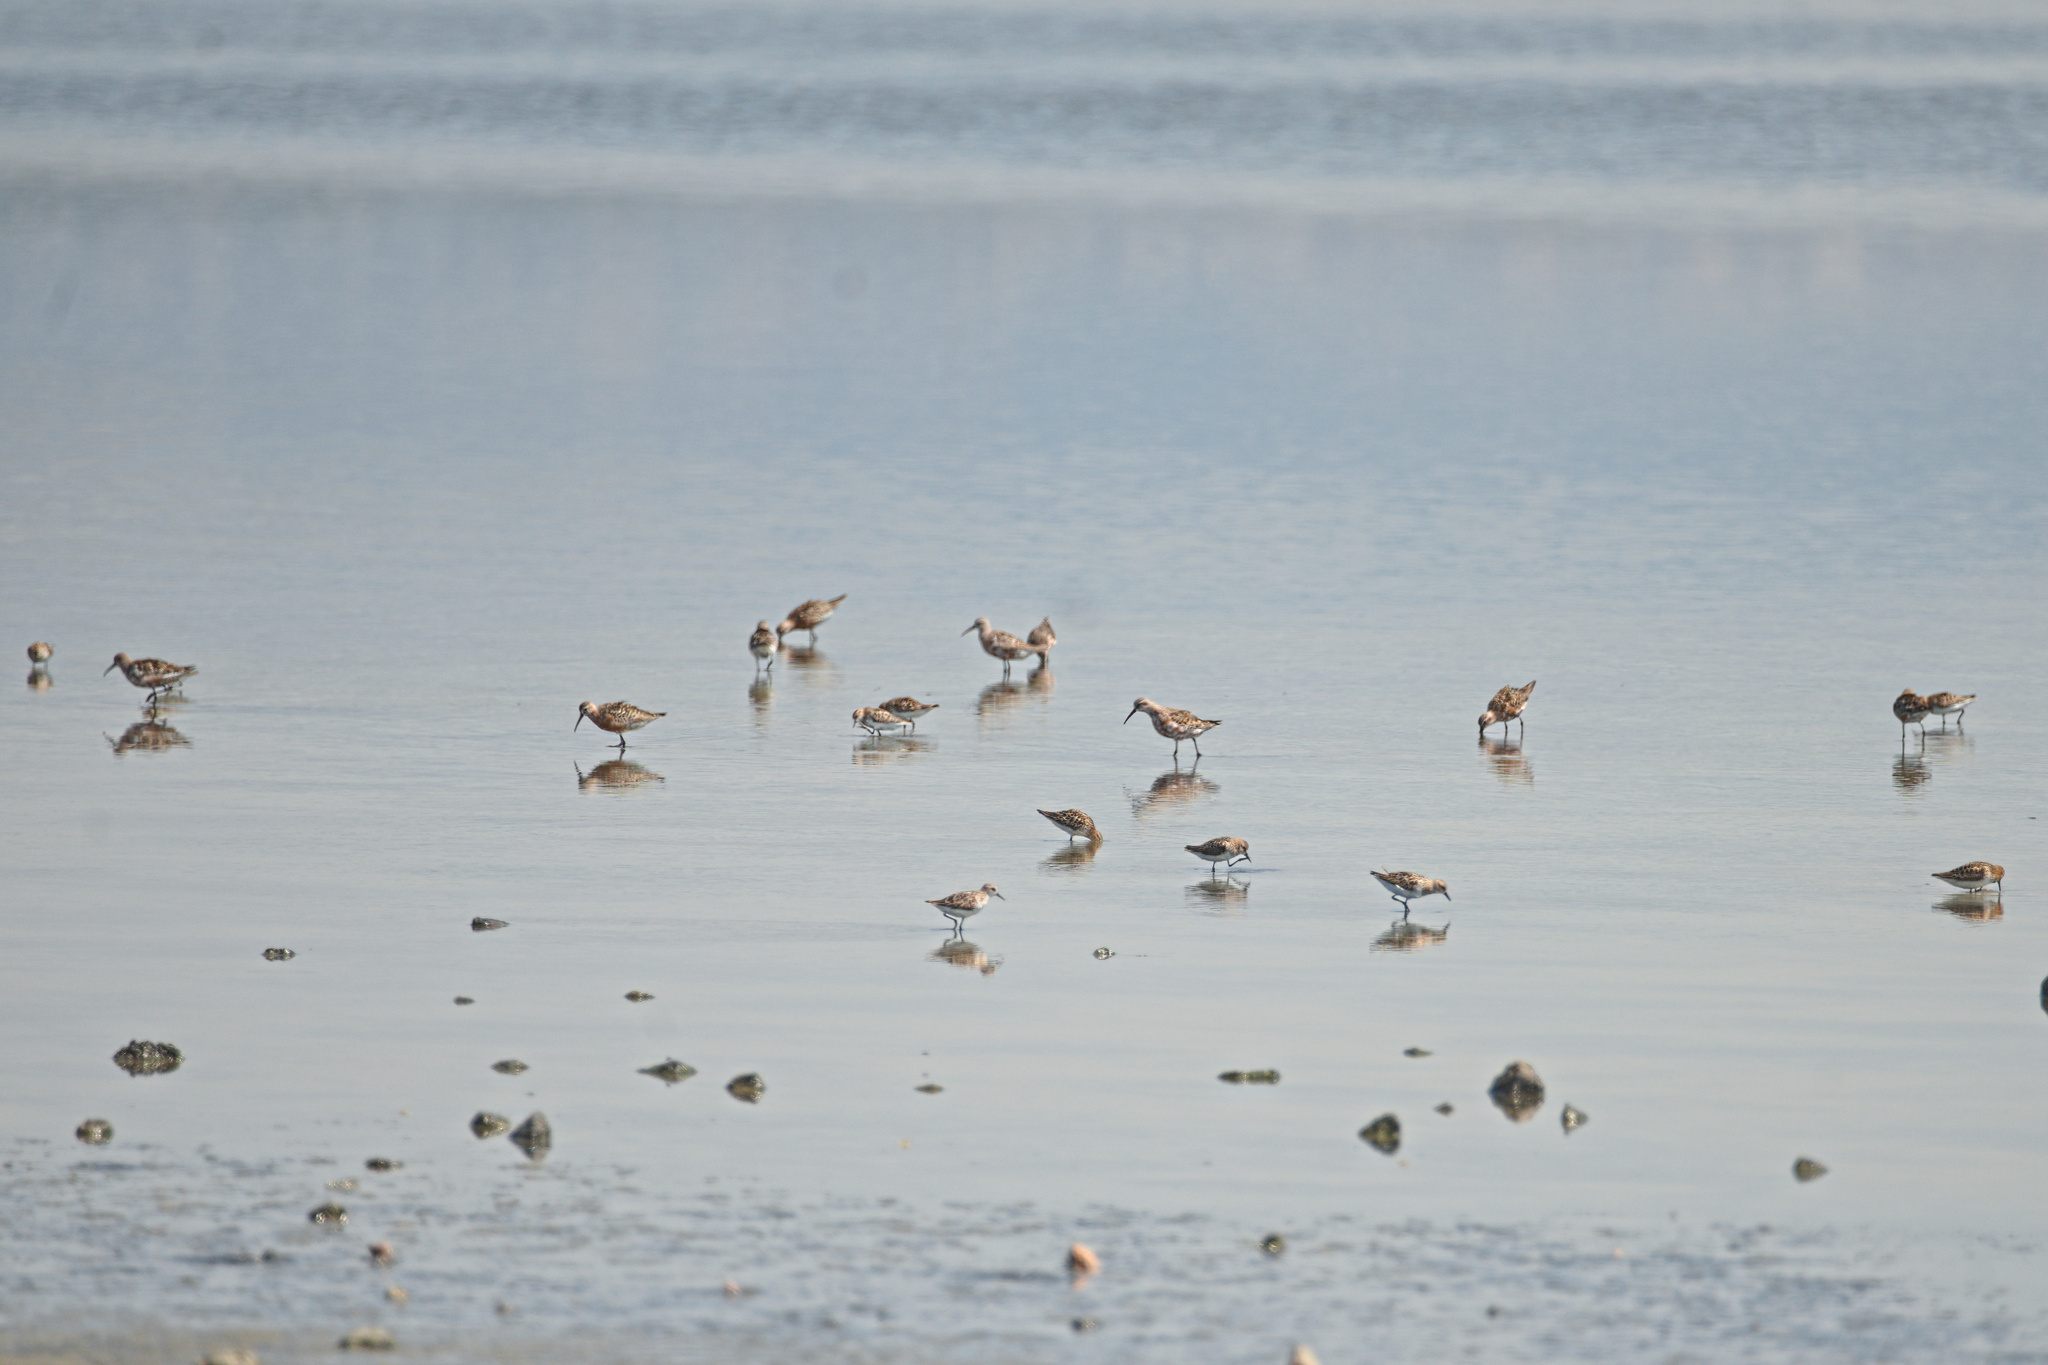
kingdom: Animalia
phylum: Chordata
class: Aves
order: Charadriiformes
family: Scolopacidae
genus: Calidris
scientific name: Calidris
